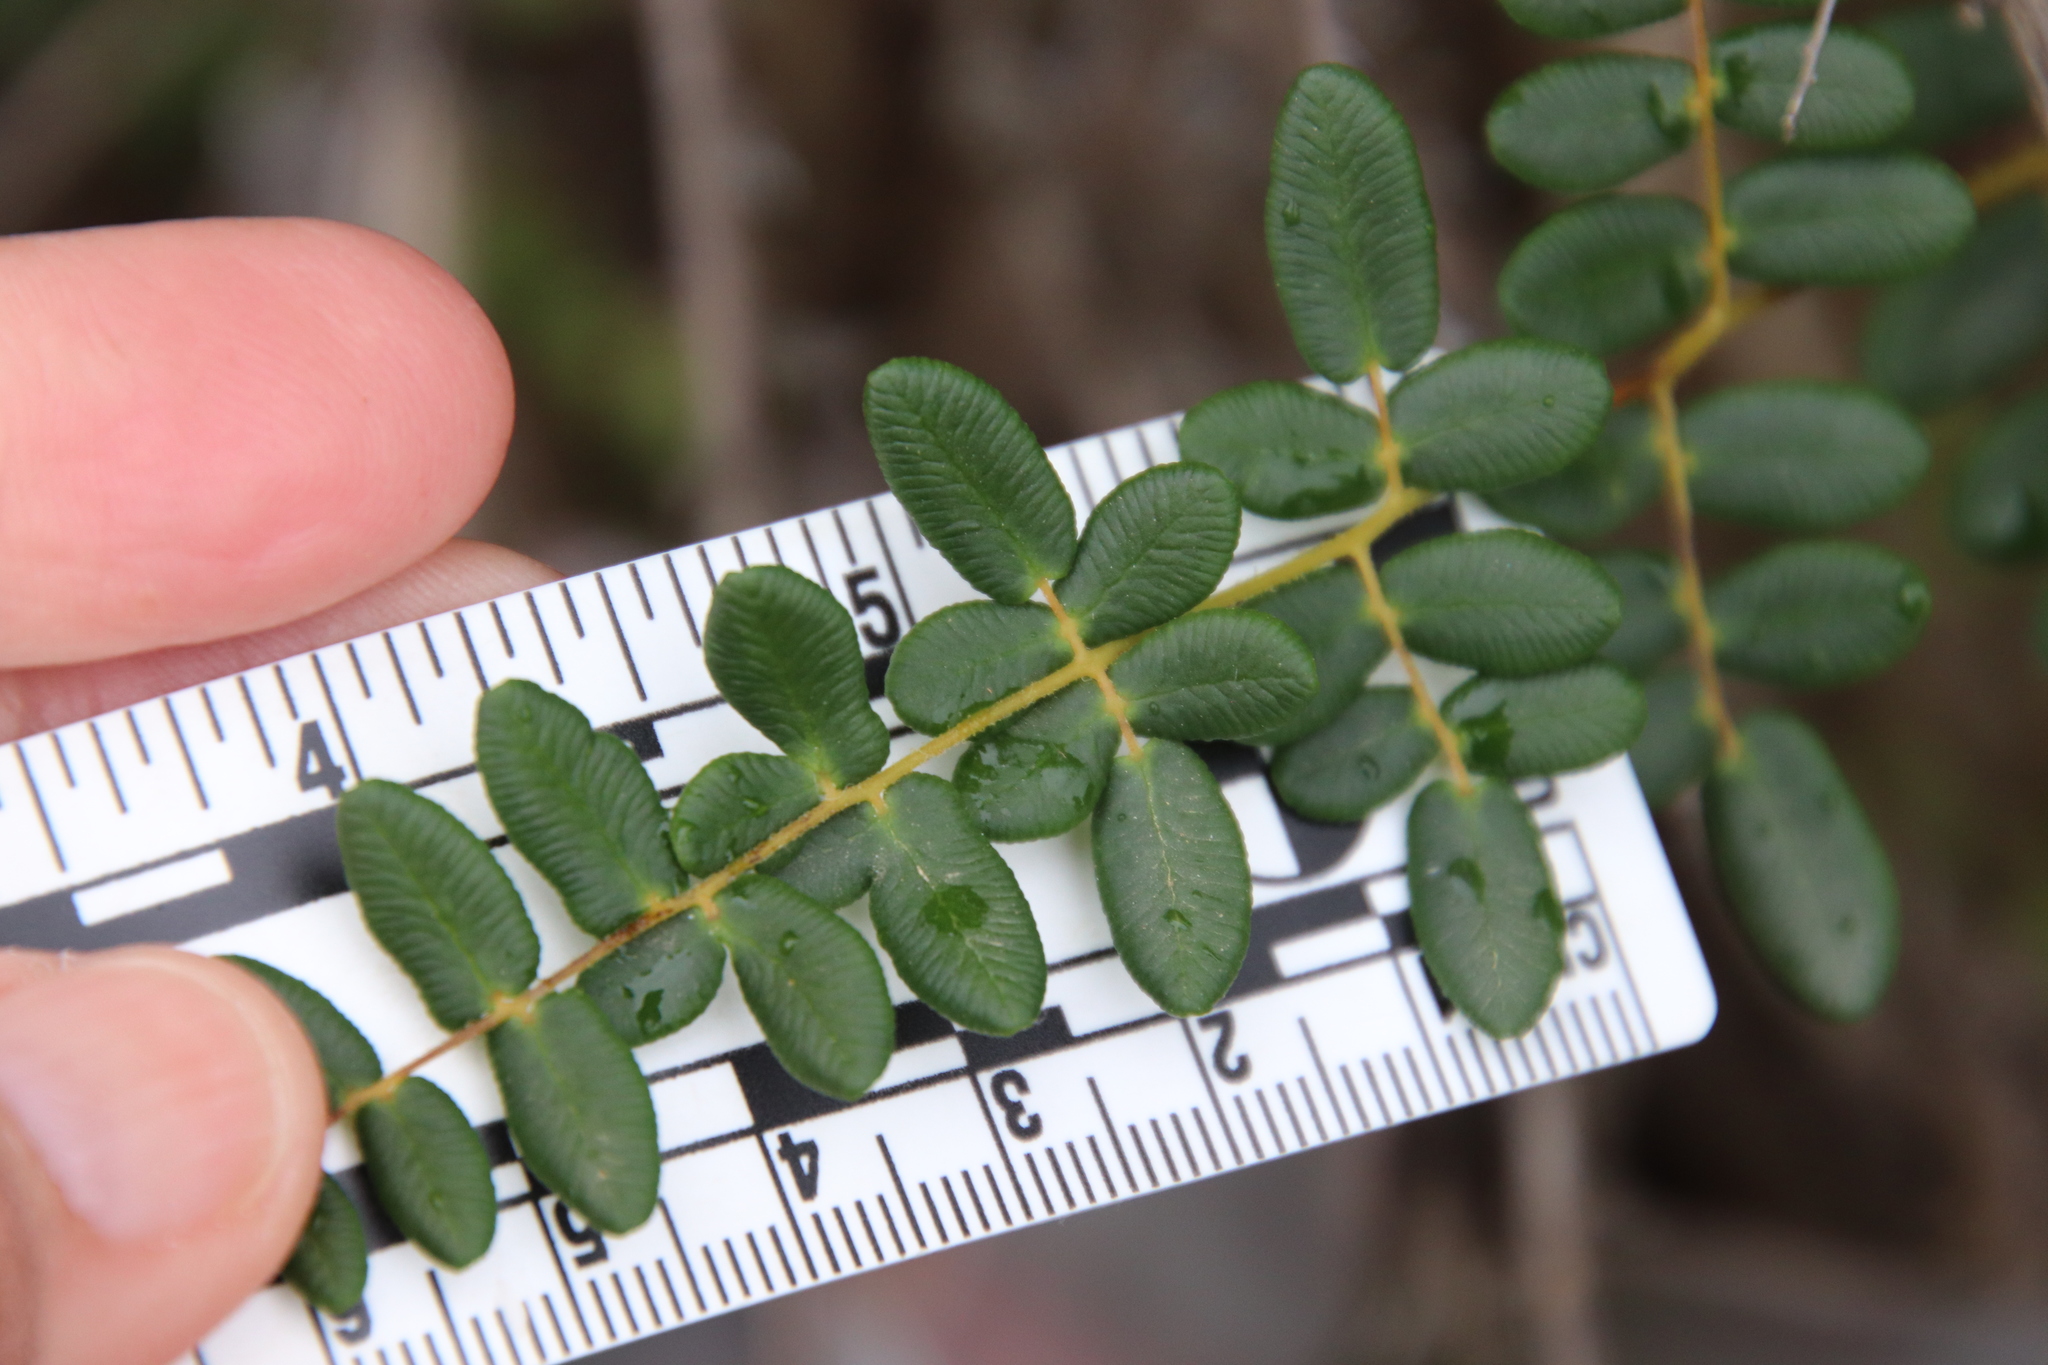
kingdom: Plantae
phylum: Tracheophyta
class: Polypodiopsida
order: Polypodiales
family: Pteridaceae
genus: Pellaea
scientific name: Pellaea andromedifolia
